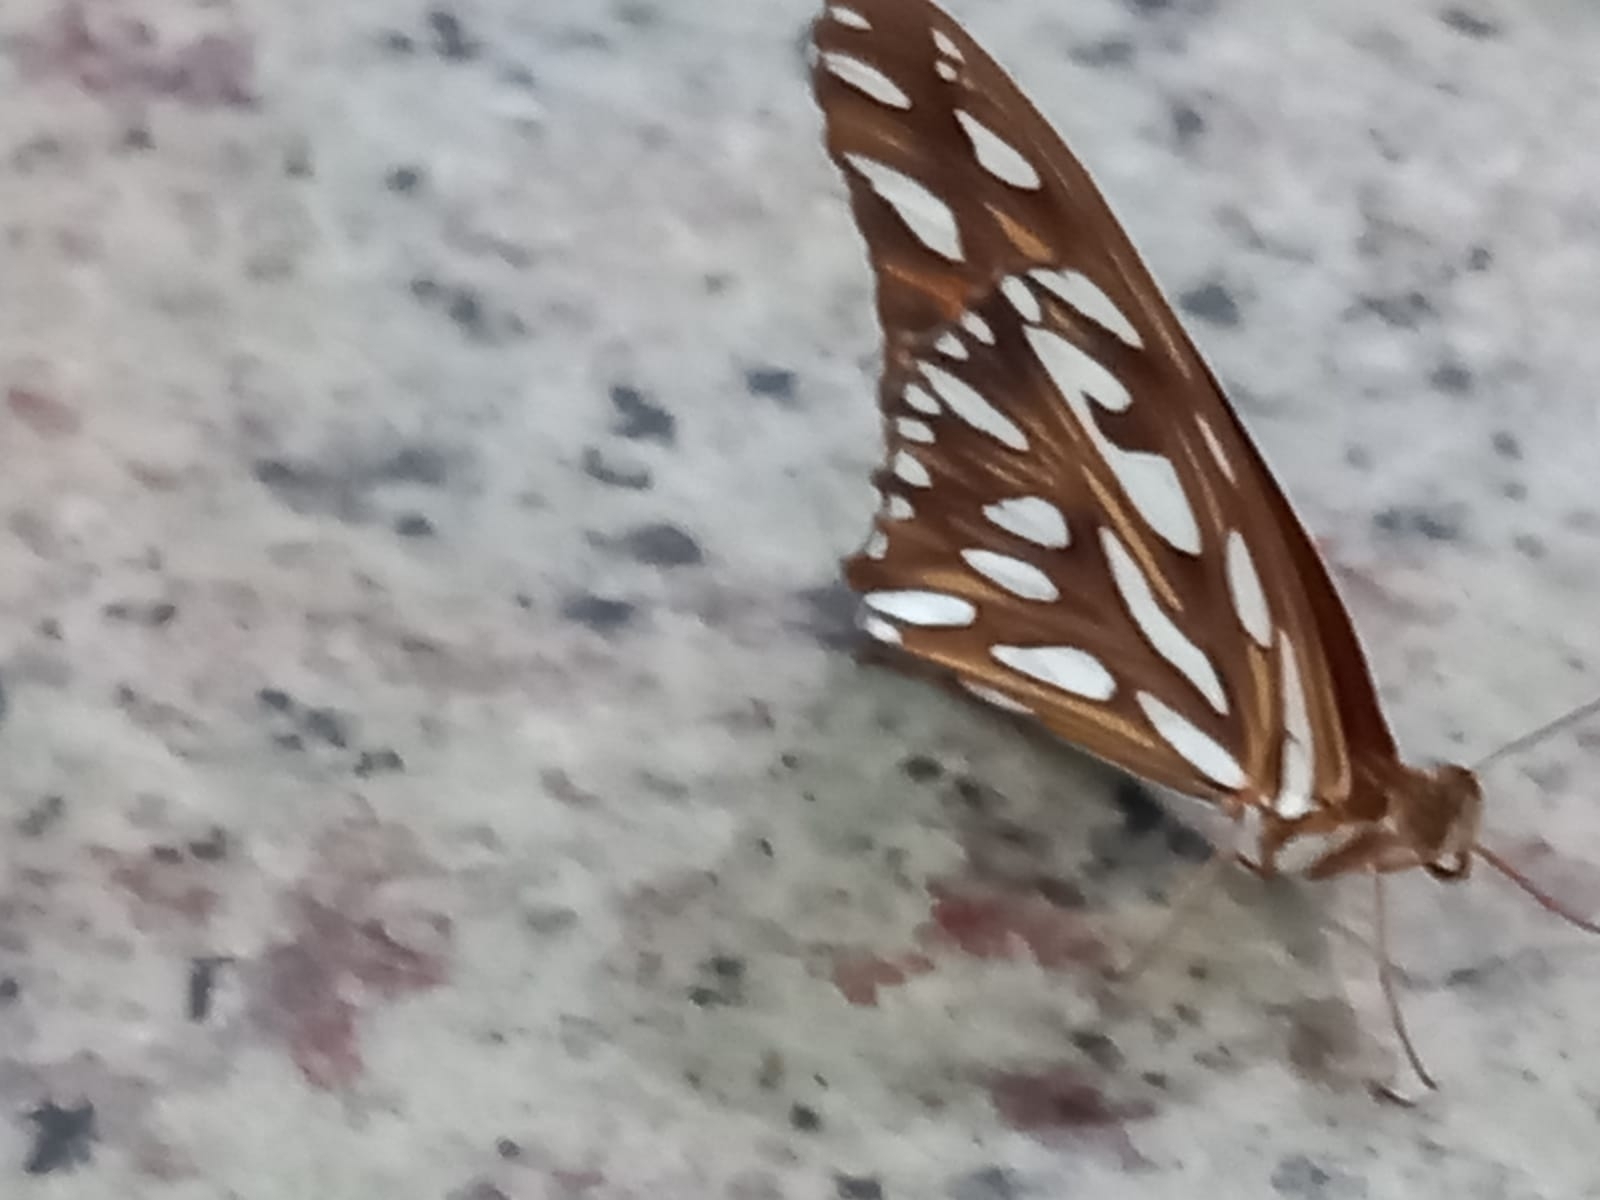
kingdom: Animalia
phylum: Arthropoda
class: Insecta
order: Lepidoptera
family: Nymphalidae
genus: Dione
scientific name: Dione vanillae
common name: Gulf fritillary
